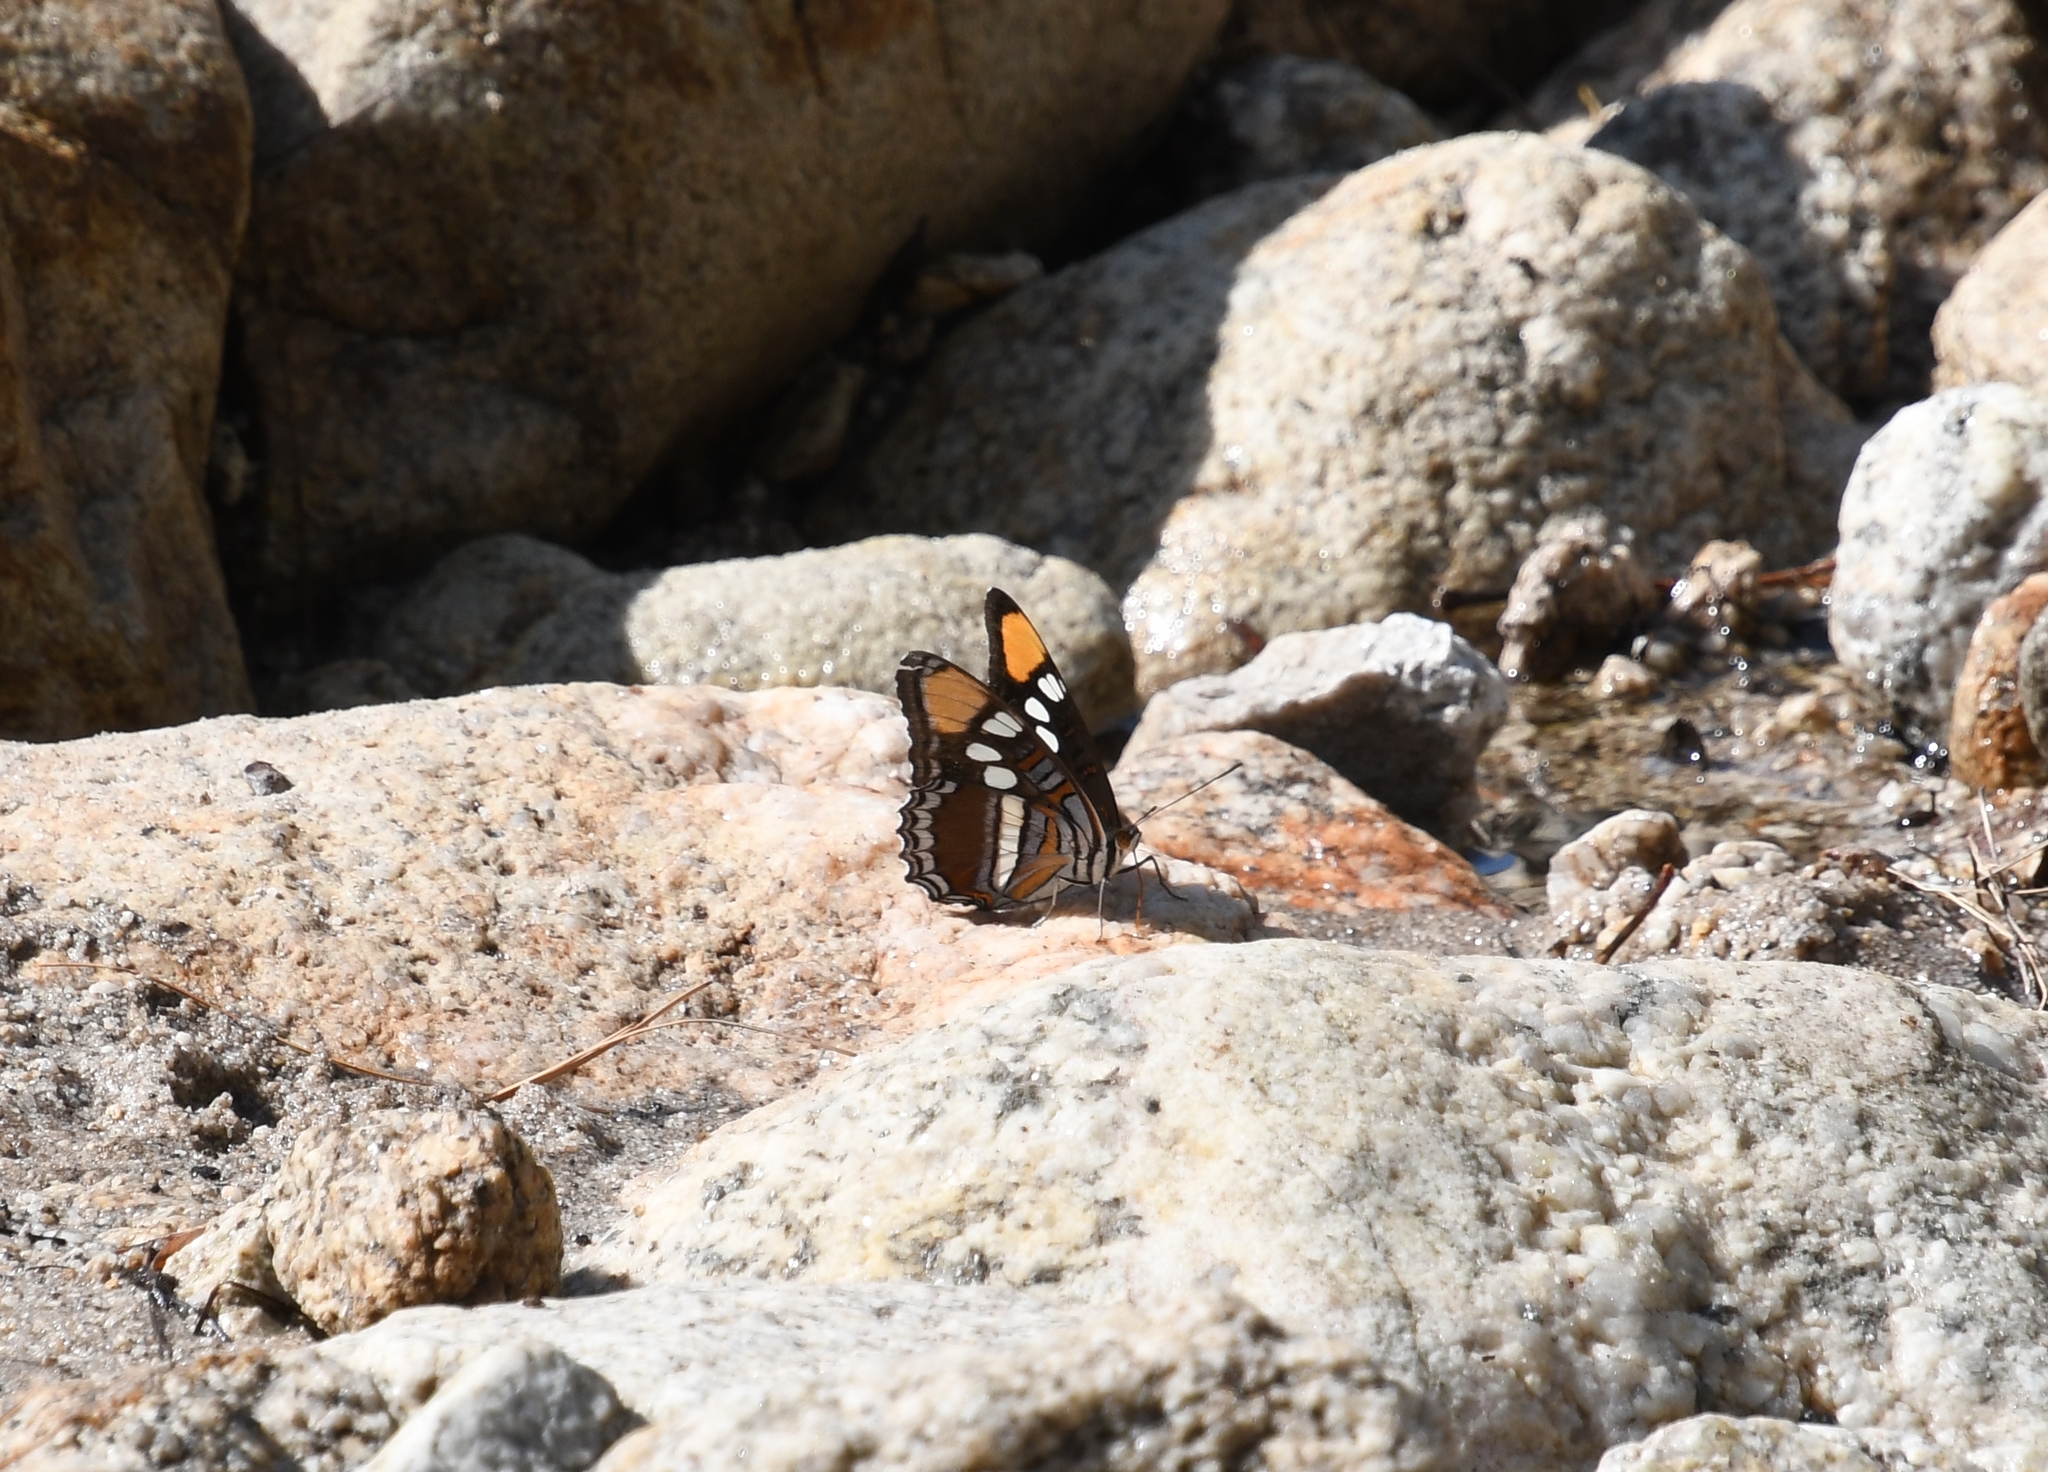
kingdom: Animalia
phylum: Arthropoda
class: Insecta
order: Lepidoptera
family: Nymphalidae
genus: Limenitis
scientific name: Limenitis bredowii
